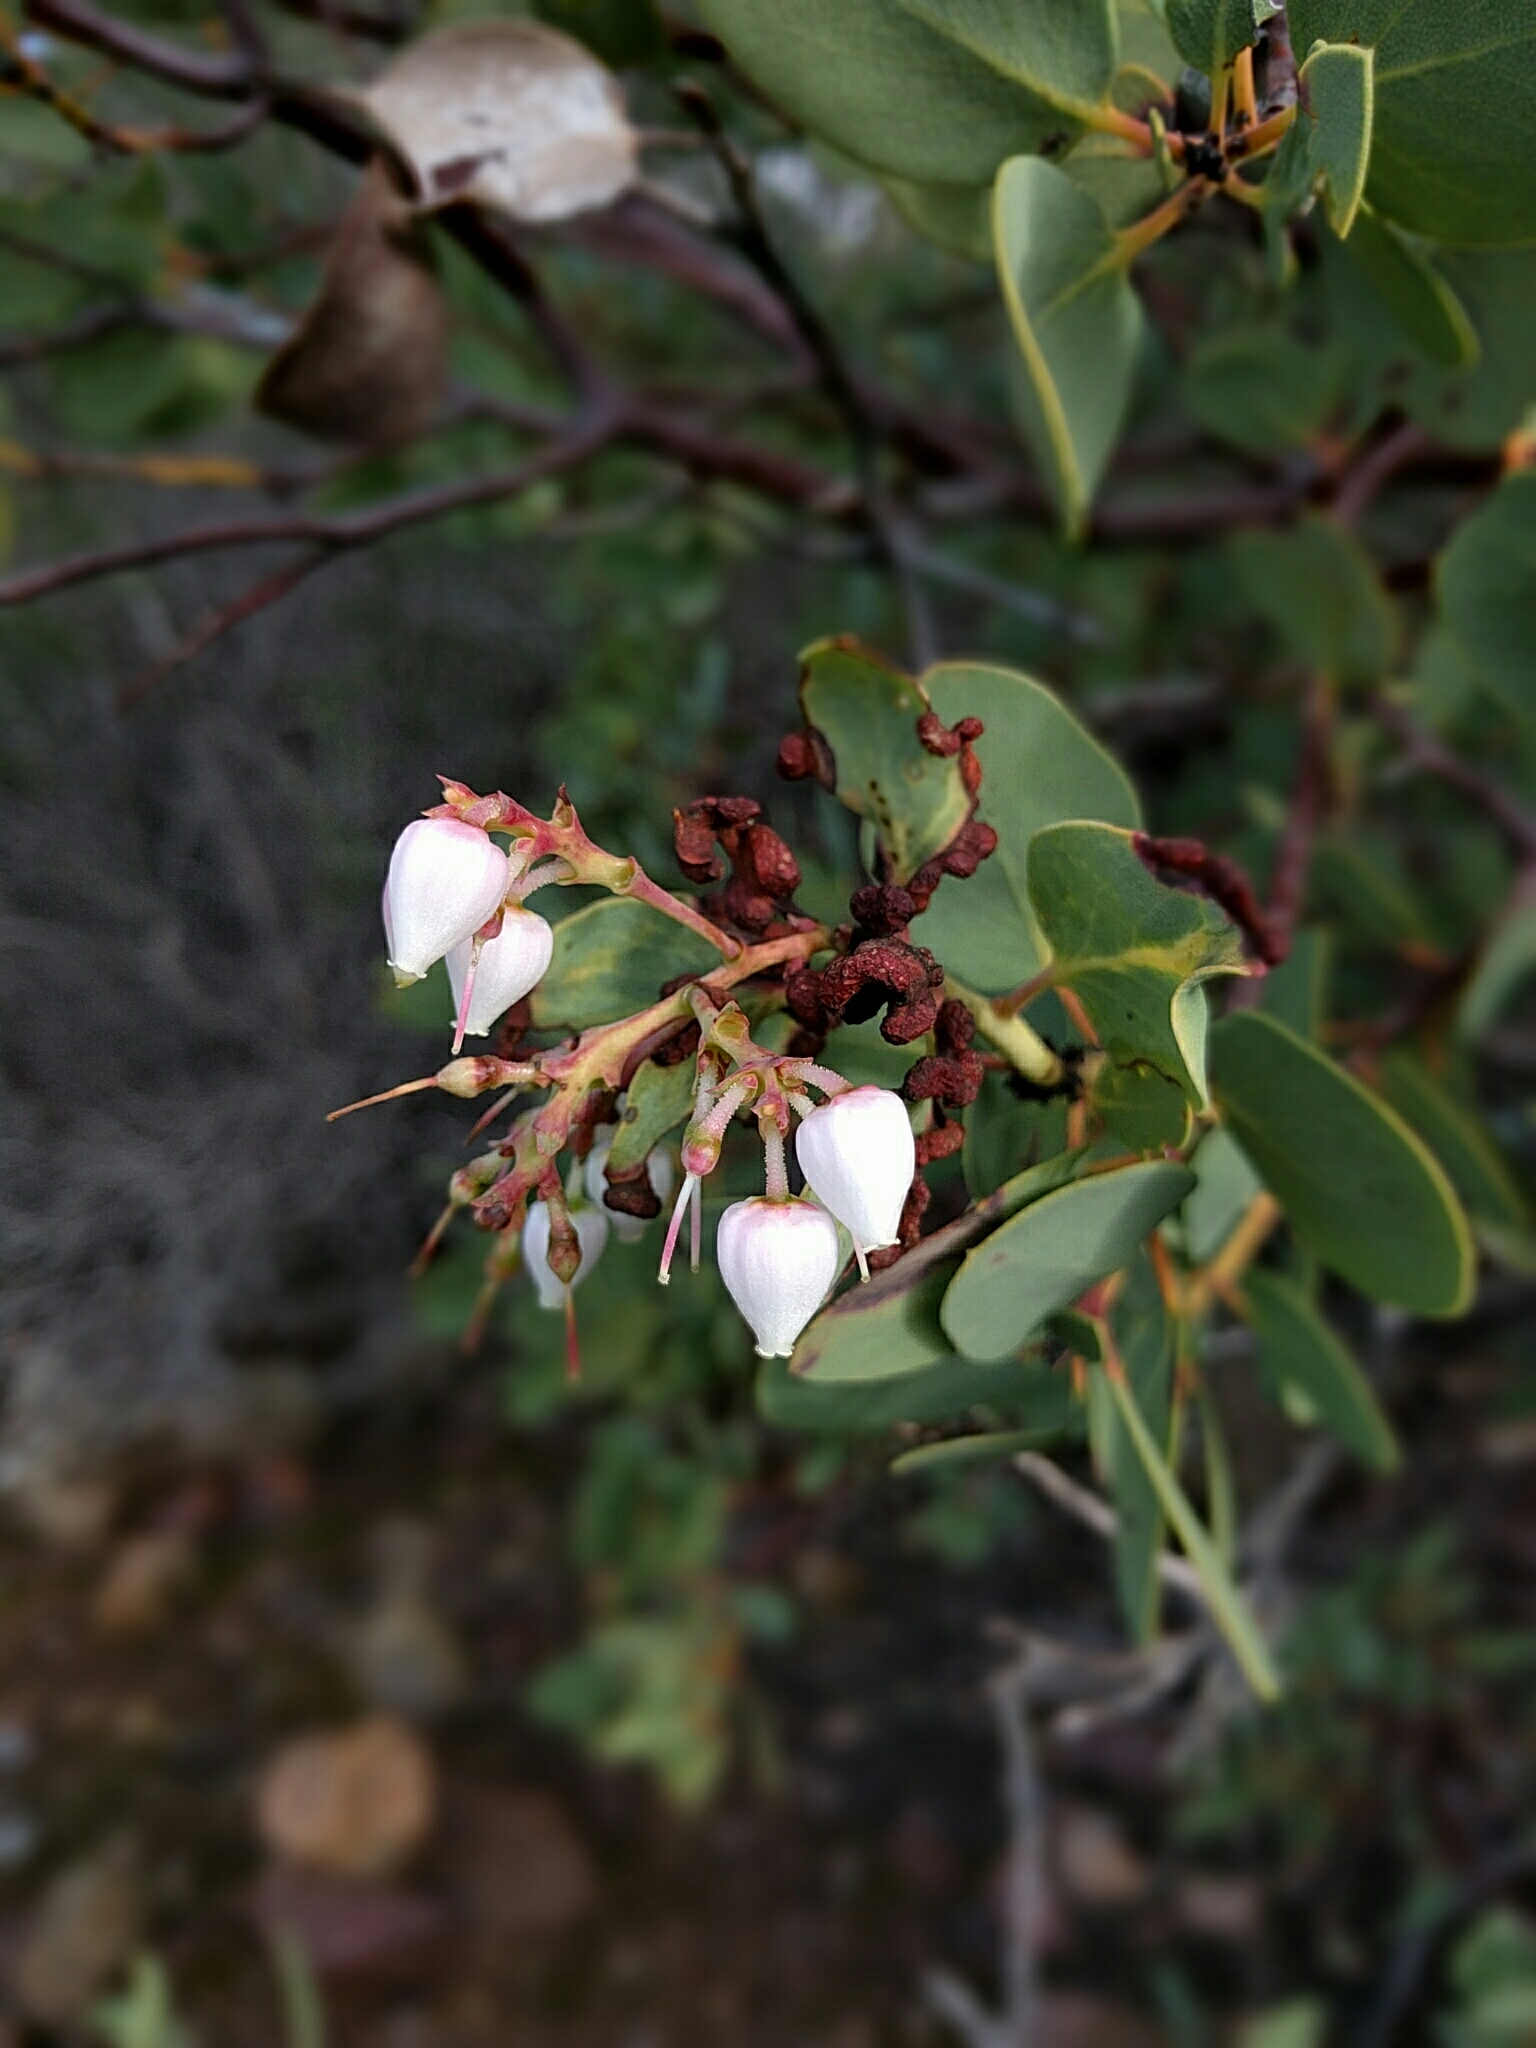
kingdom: Plantae
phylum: Tracheophyta
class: Magnoliopsida
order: Ericales
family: Ericaceae
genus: Arctostaphylos
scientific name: Arctostaphylos glauca
